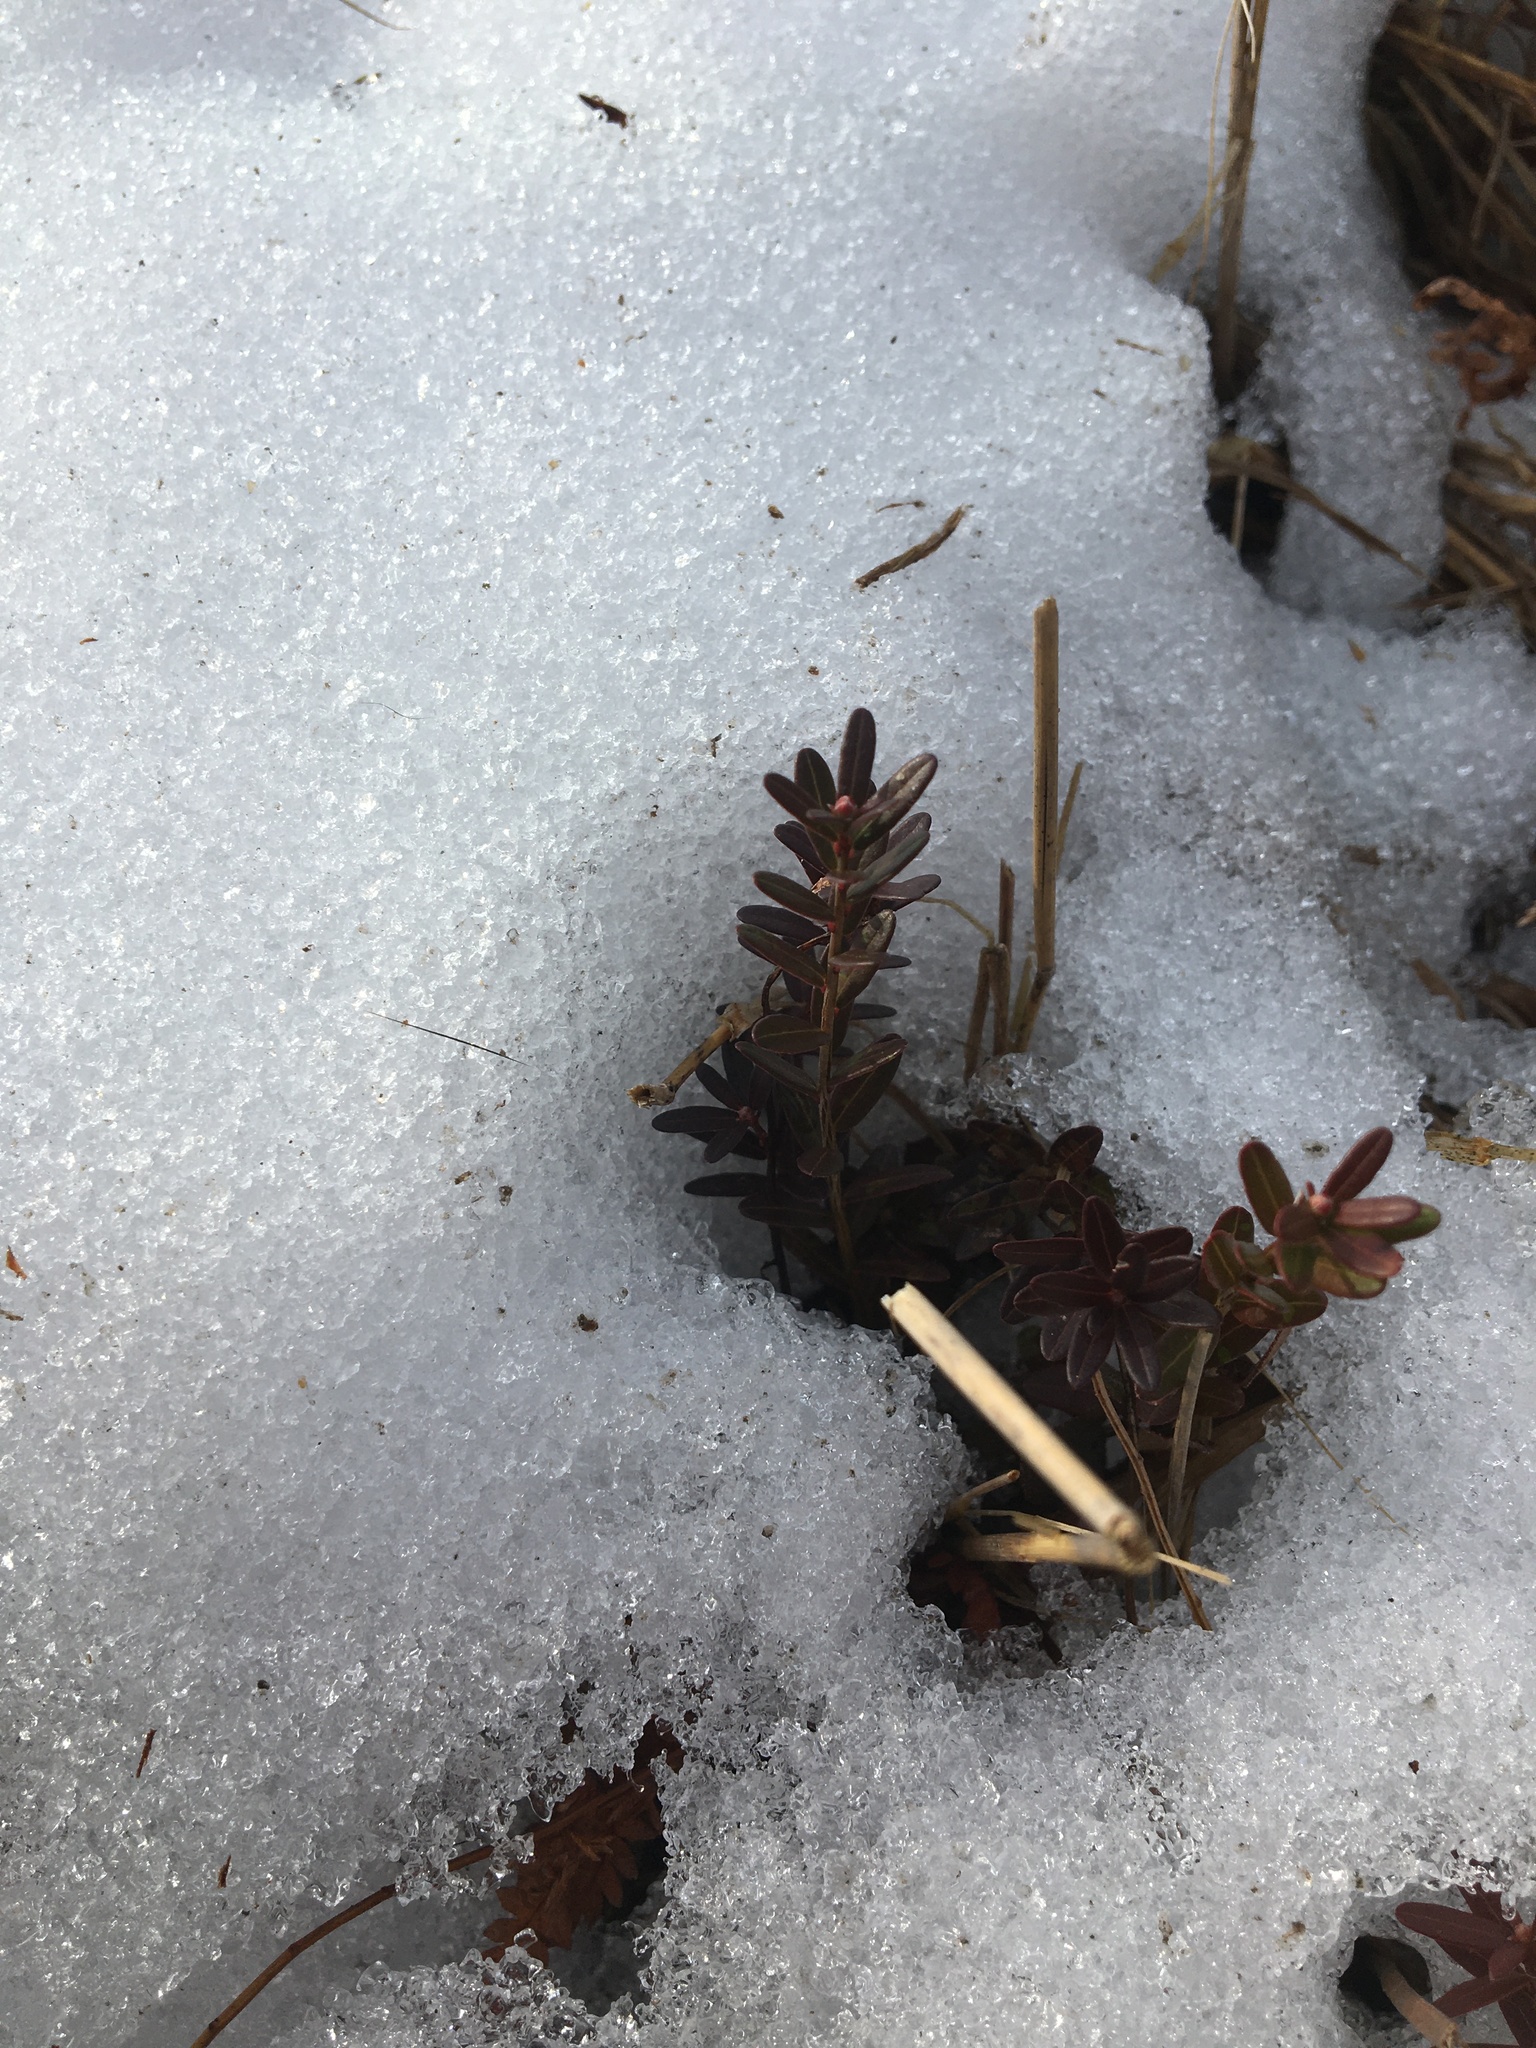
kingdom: Plantae
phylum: Tracheophyta
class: Magnoliopsida
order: Ericales
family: Ericaceae
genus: Vaccinium
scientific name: Vaccinium macrocarpon
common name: American cranberry
